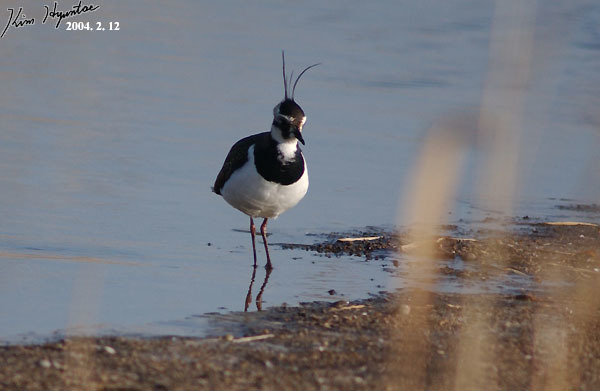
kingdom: Animalia
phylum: Chordata
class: Aves
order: Charadriiformes
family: Charadriidae
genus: Vanellus
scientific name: Vanellus vanellus
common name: Northern lapwing
